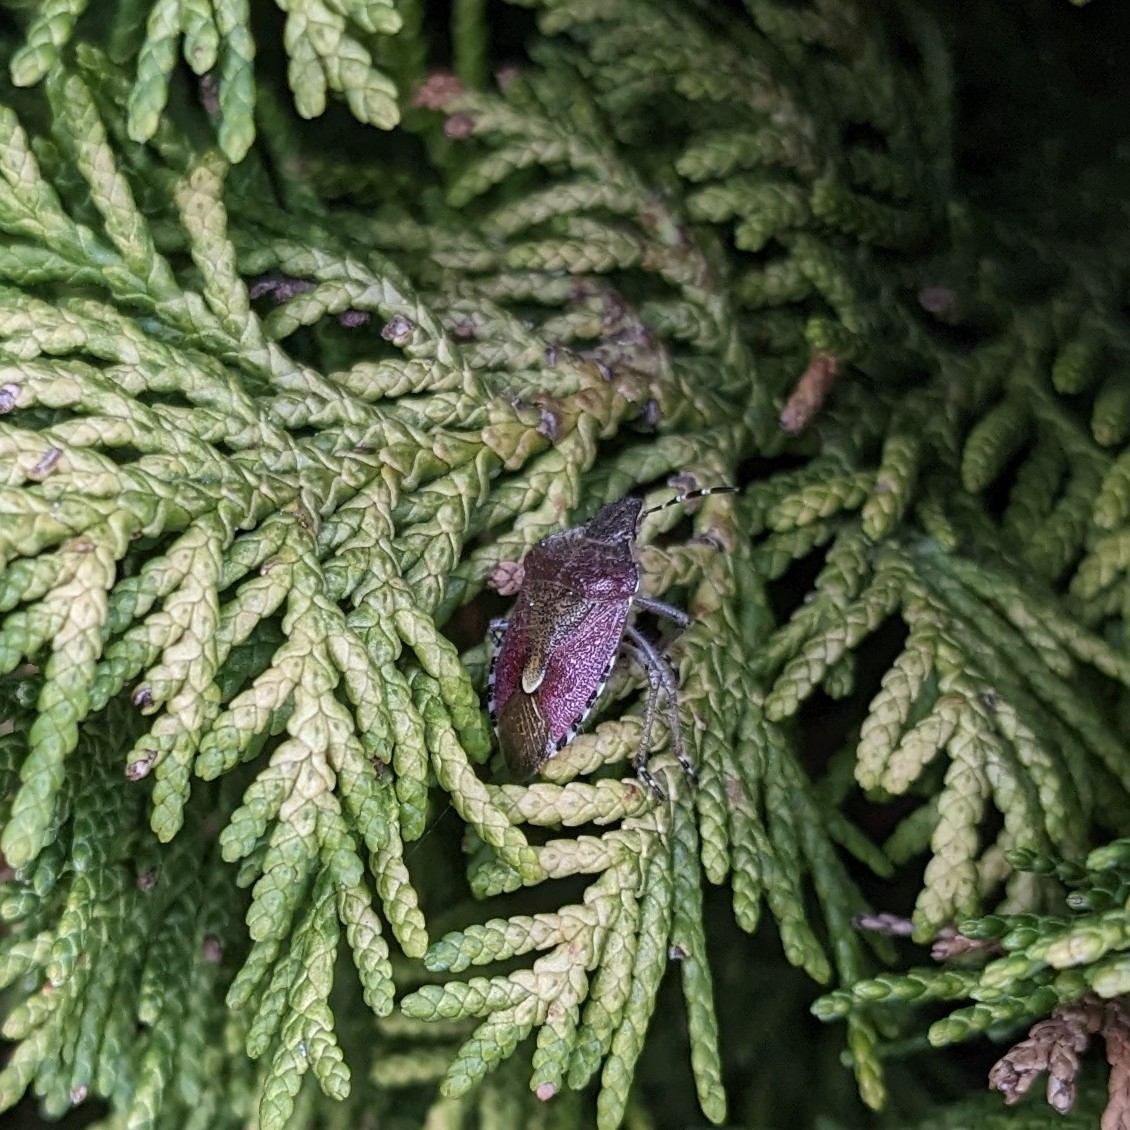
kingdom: Animalia
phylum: Arthropoda
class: Insecta
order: Hemiptera
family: Pentatomidae
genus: Dolycoris
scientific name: Dolycoris baccarum
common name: Sloe bug
